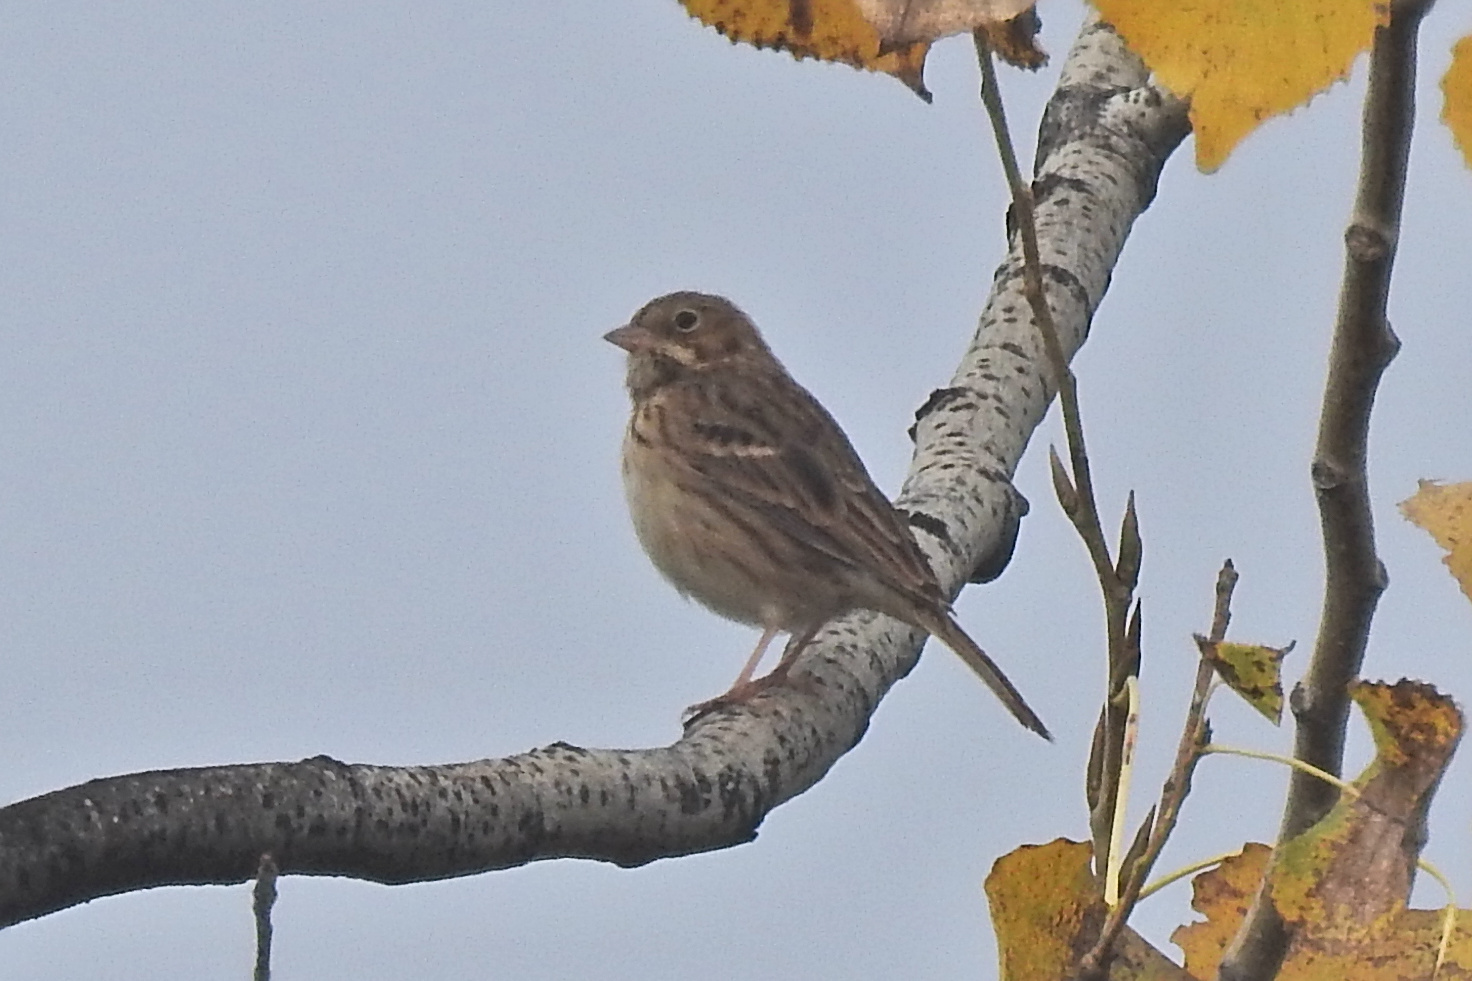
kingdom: Animalia
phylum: Chordata
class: Aves
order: Passeriformes
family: Passerellidae
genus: Pooecetes
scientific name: Pooecetes gramineus
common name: Vesper sparrow
